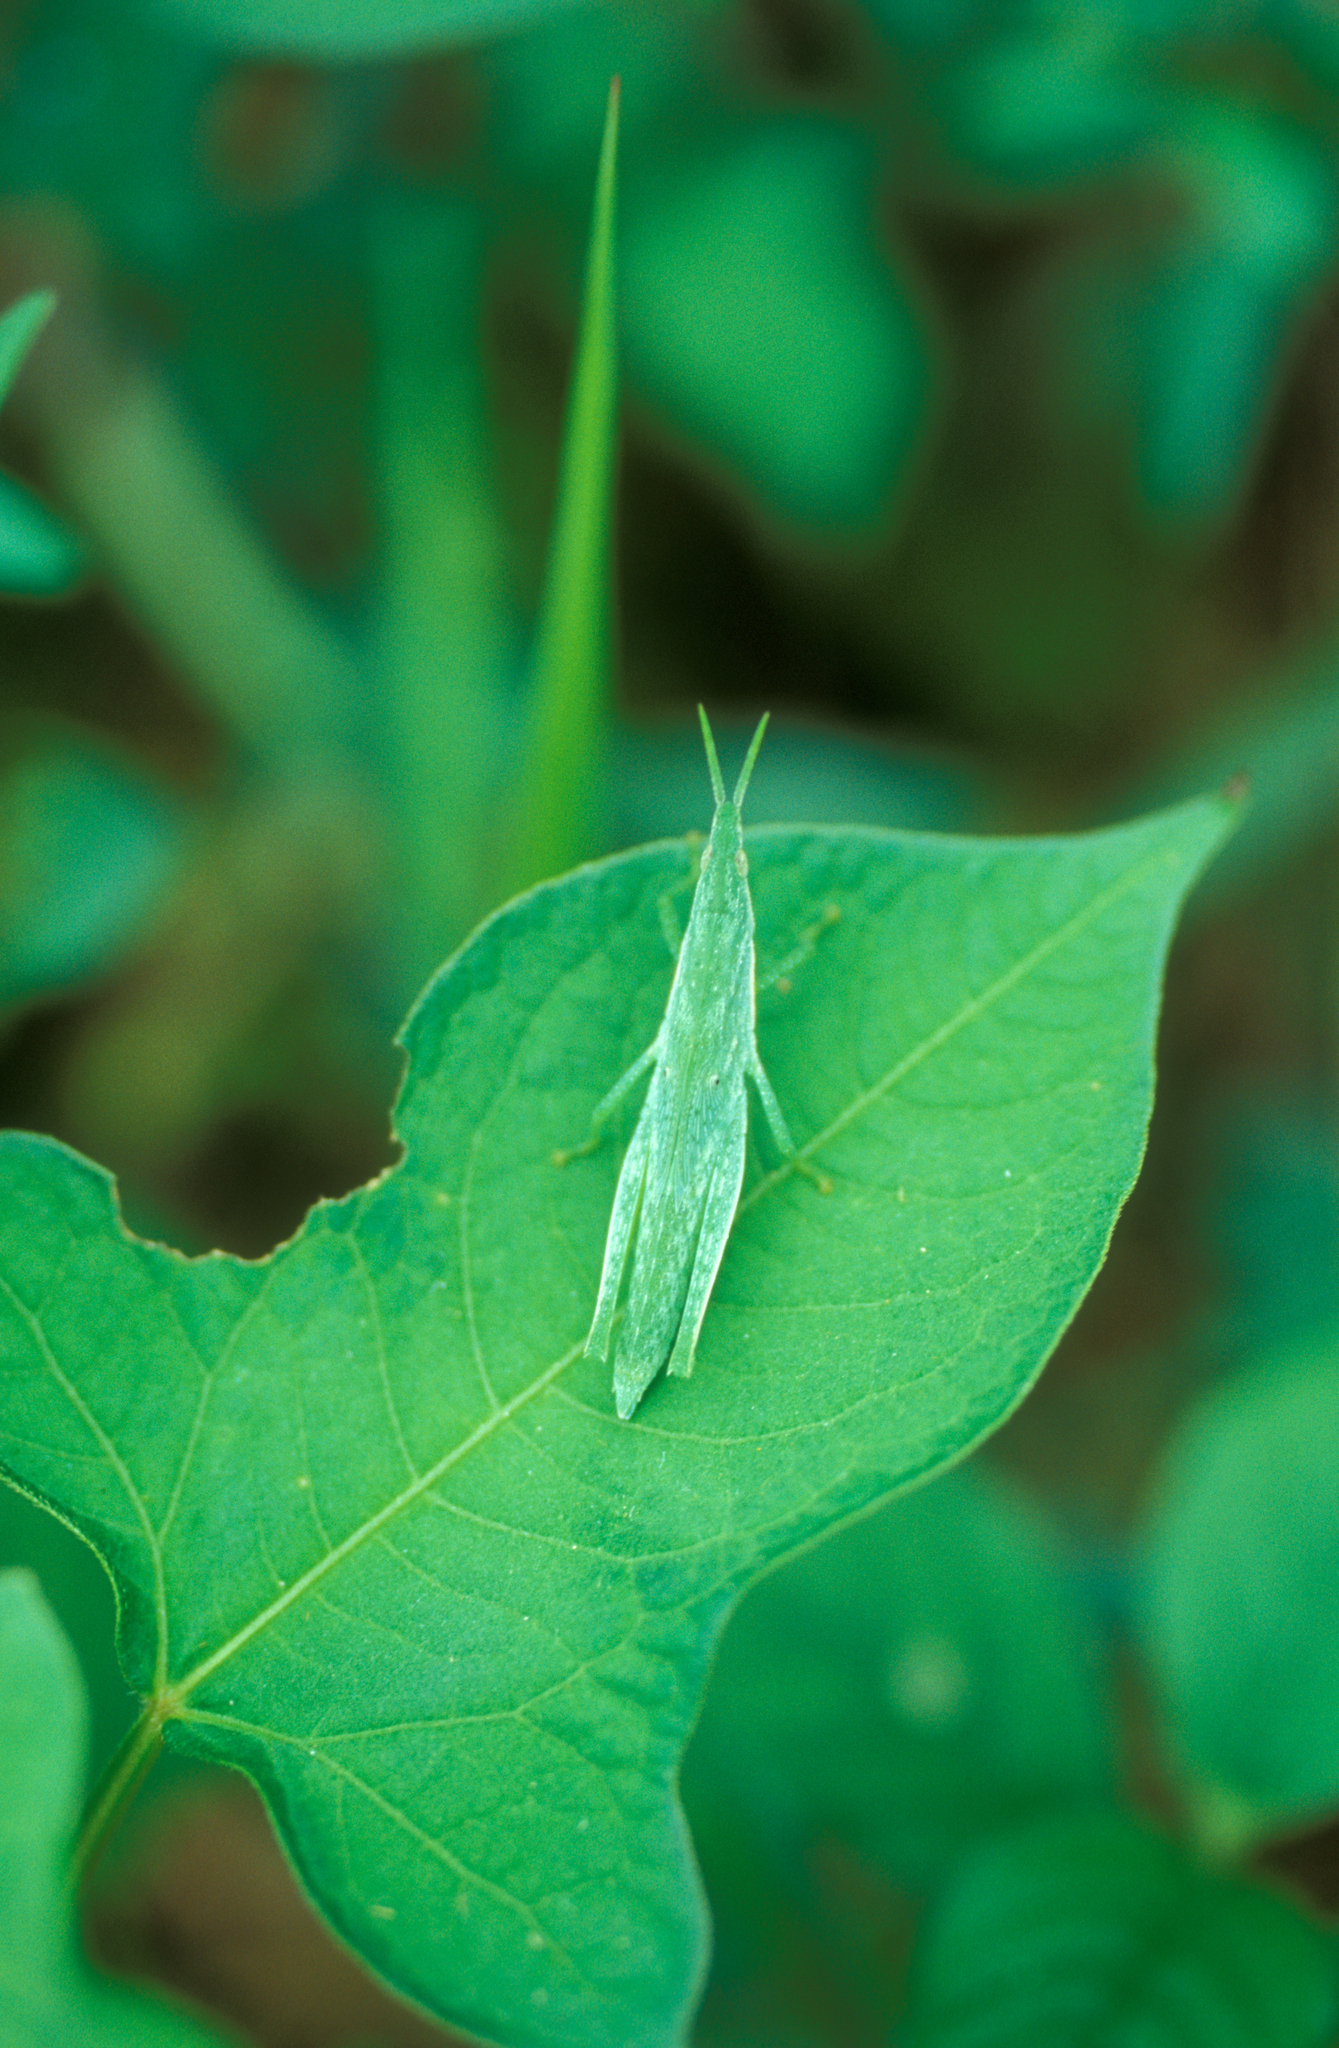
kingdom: Animalia
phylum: Arthropoda
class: Insecta
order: Orthoptera
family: Pyrgomorphidae
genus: Atractomorpha
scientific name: Atractomorpha lata
